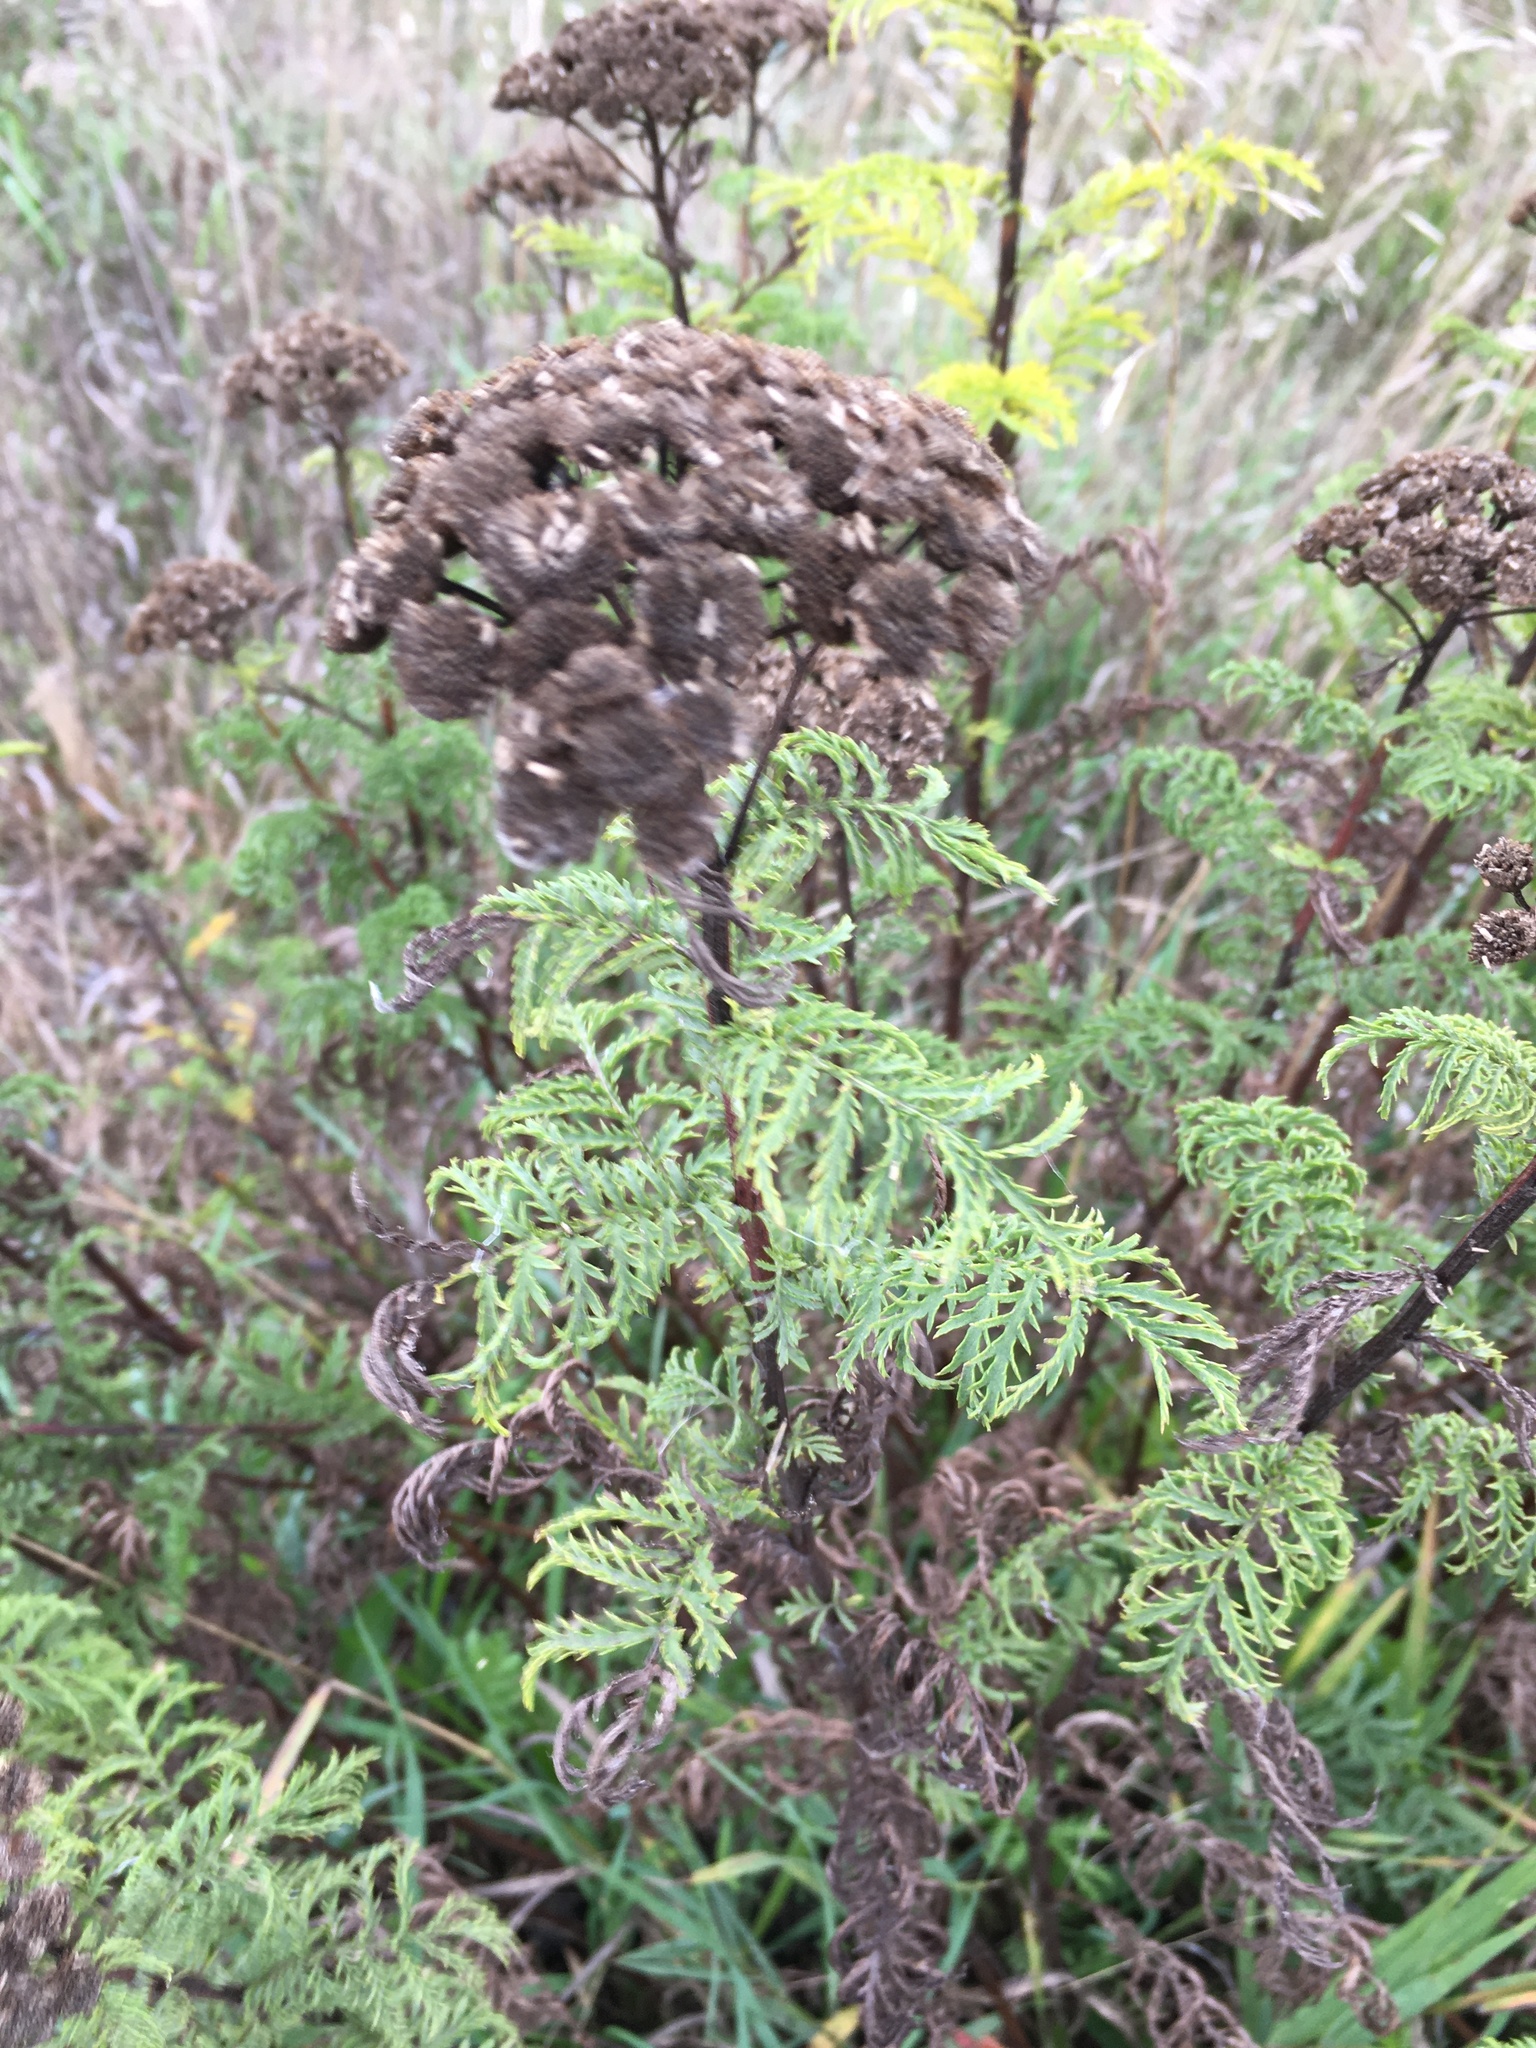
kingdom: Plantae
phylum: Tracheophyta
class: Magnoliopsida
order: Asterales
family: Asteraceae
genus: Tanacetum
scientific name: Tanacetum vulgare
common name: Common tansy
